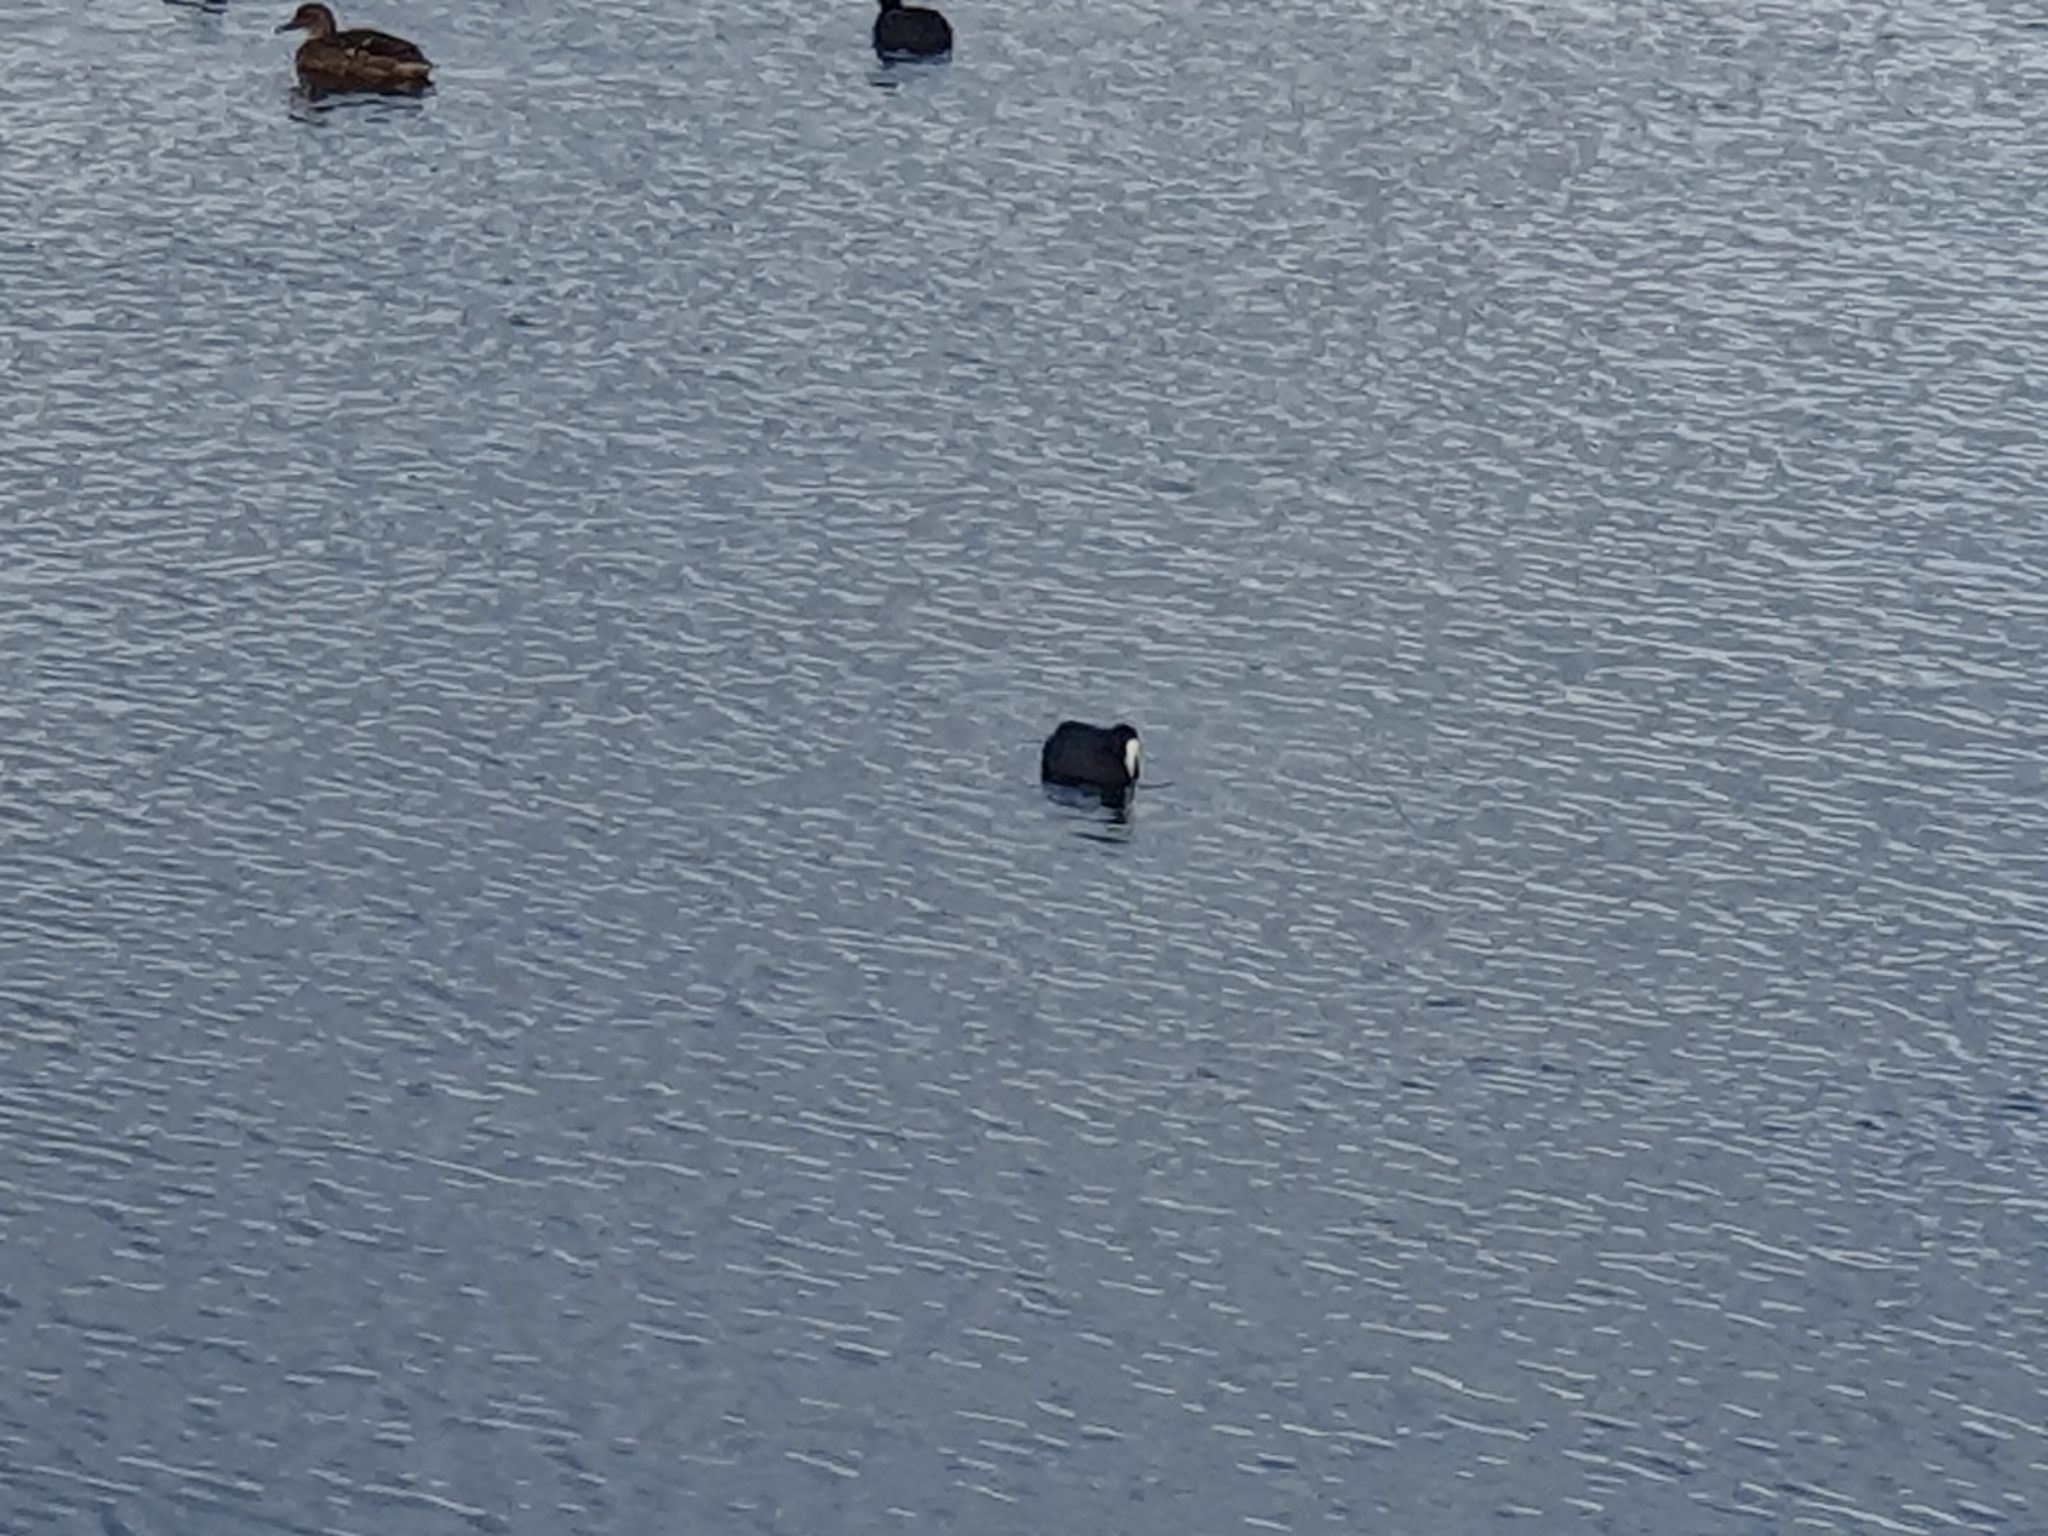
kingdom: Animalia
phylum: Chordata
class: Aves
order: Gruiformes
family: Rallidae
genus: Fulica
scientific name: Fulica atra
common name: Eurasian coot
